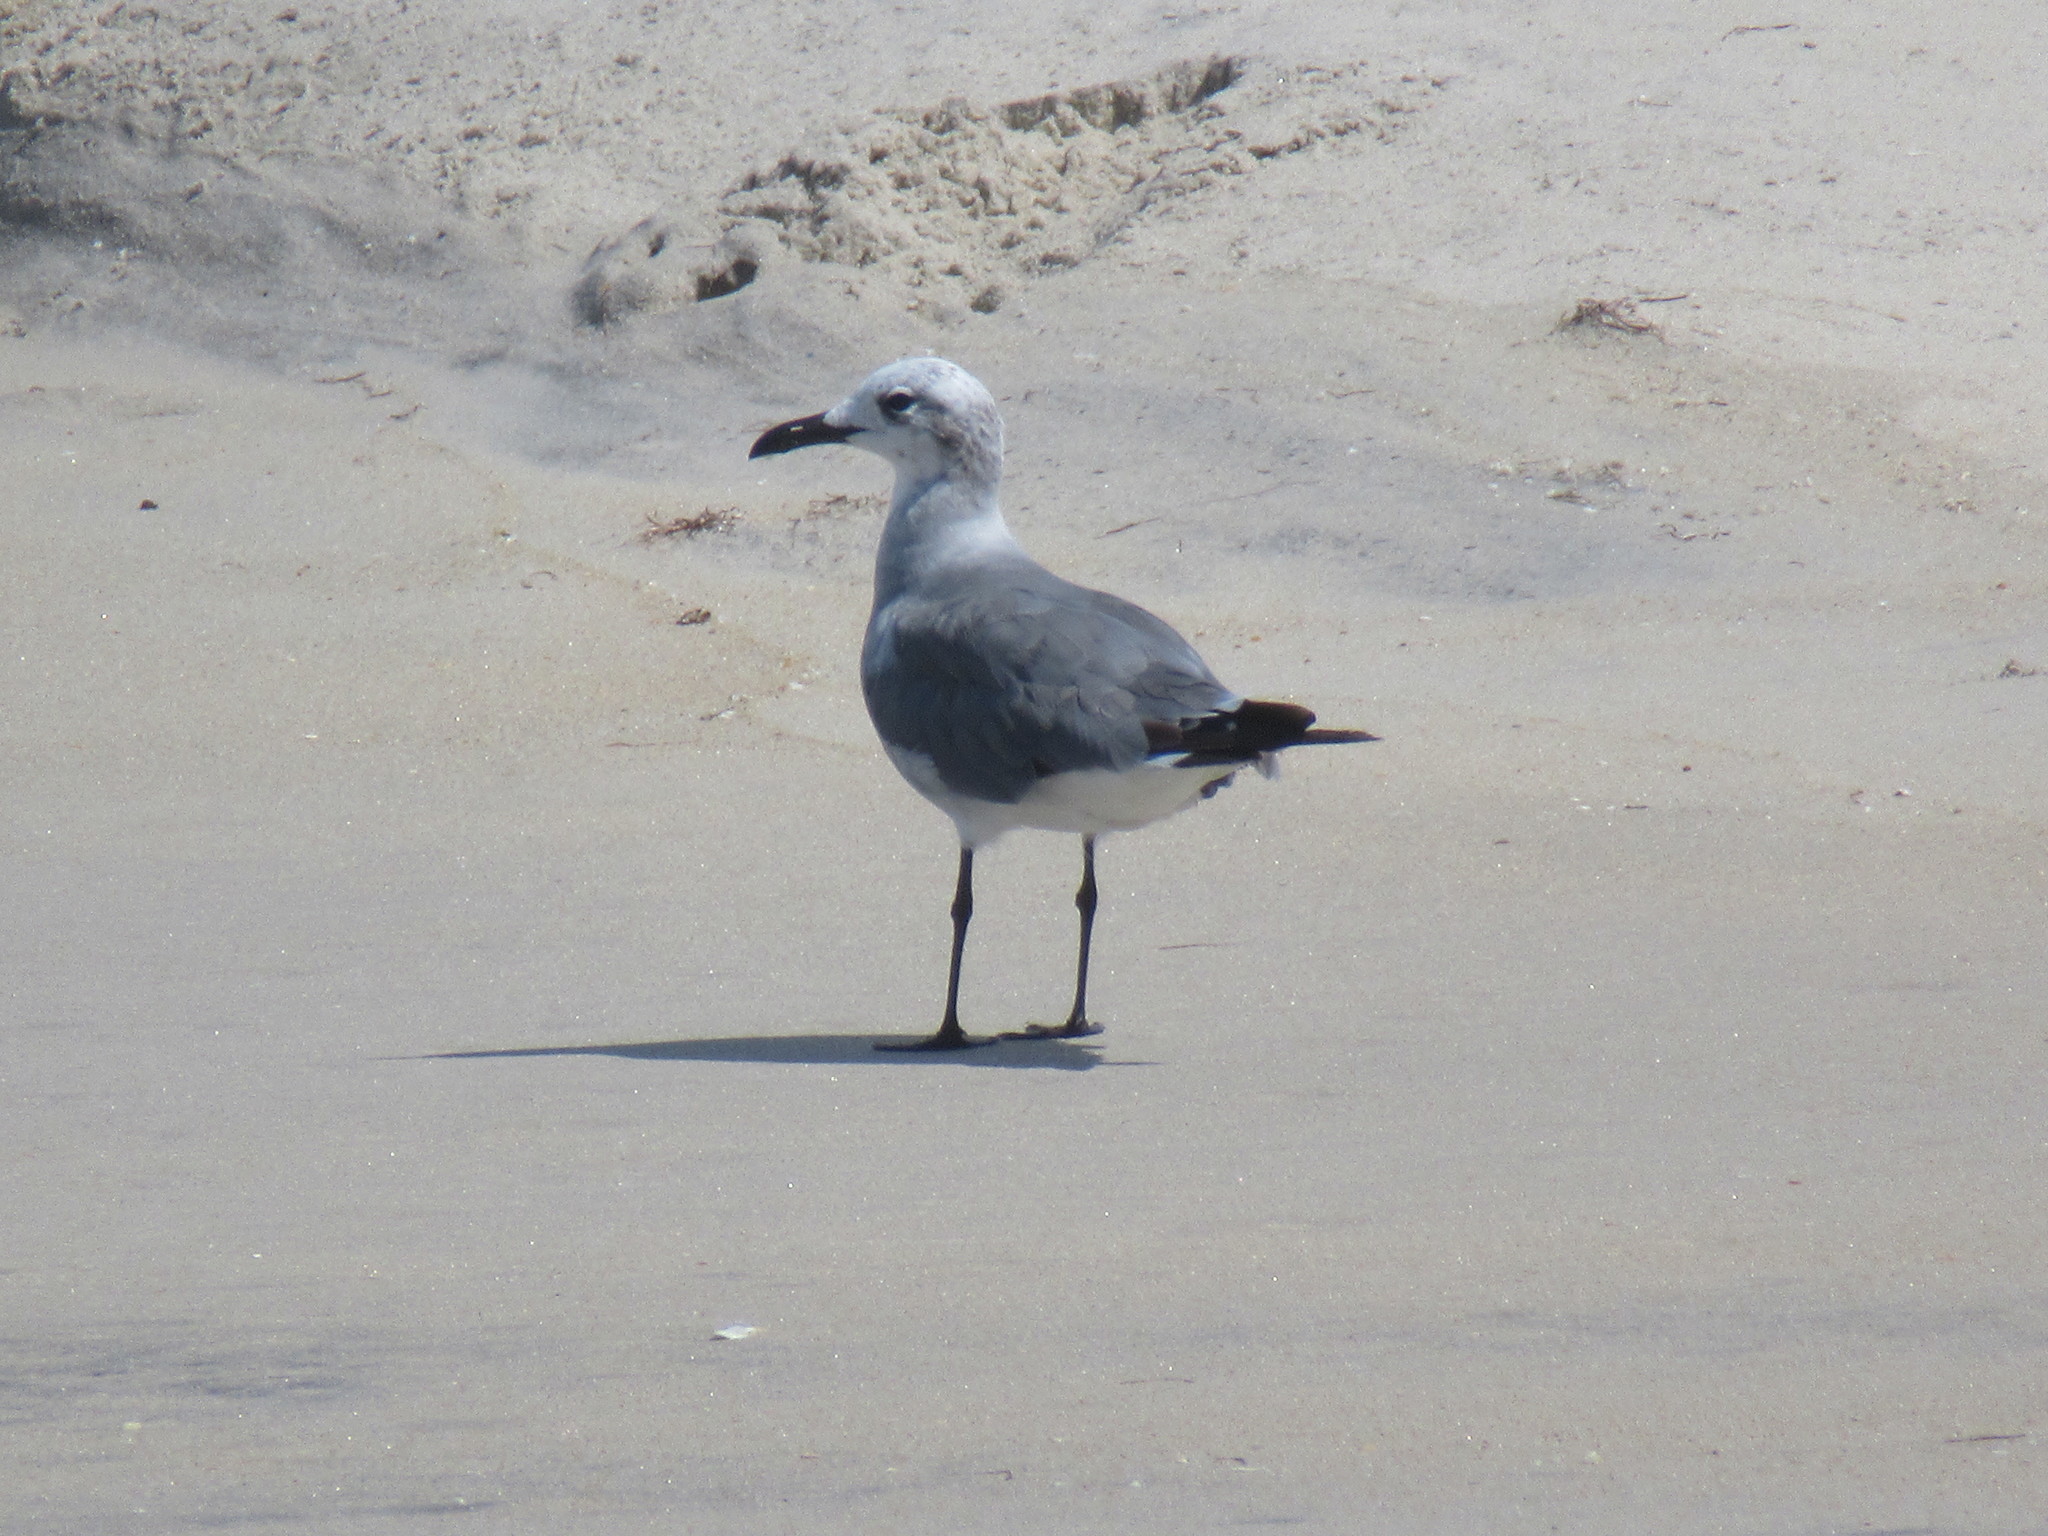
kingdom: Animalia
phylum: Chordata
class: Aves
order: Charadriiformes
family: Laridae
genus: Leucophaeus
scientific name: Leucophaeus atricilla
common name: Laughing gull
